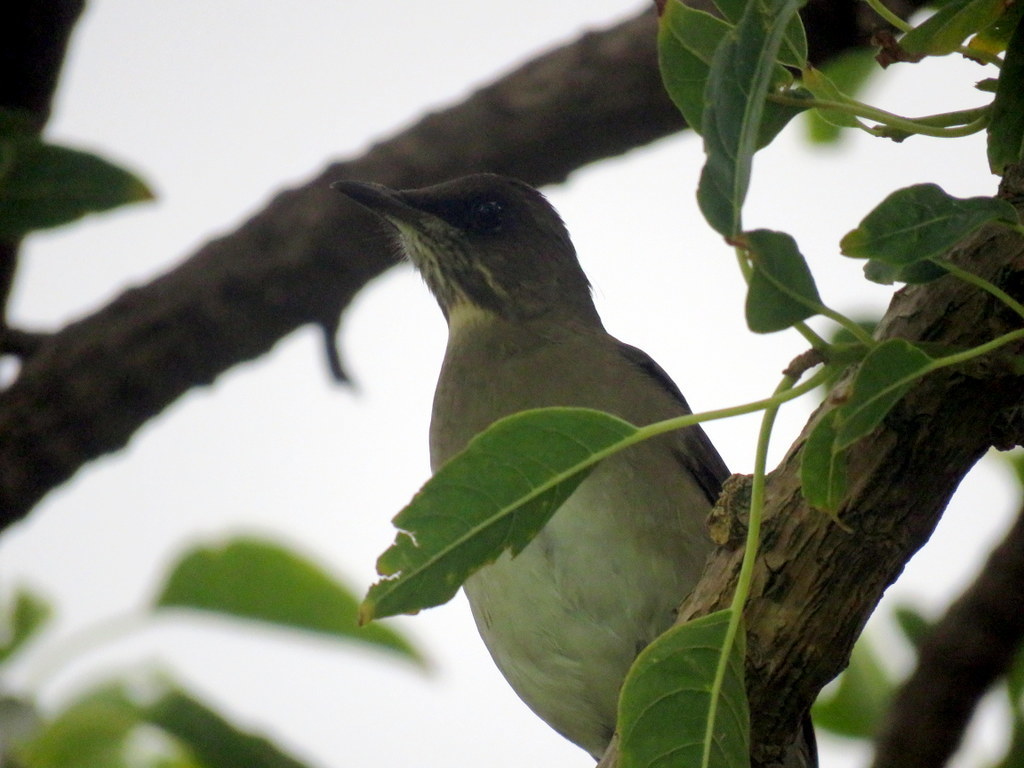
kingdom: Animalia
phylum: Chordata
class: Aves
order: Passeriformes
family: Turdidae
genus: Turdus
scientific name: Turdus amaurochalinus
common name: Creamy-bellied thrush
